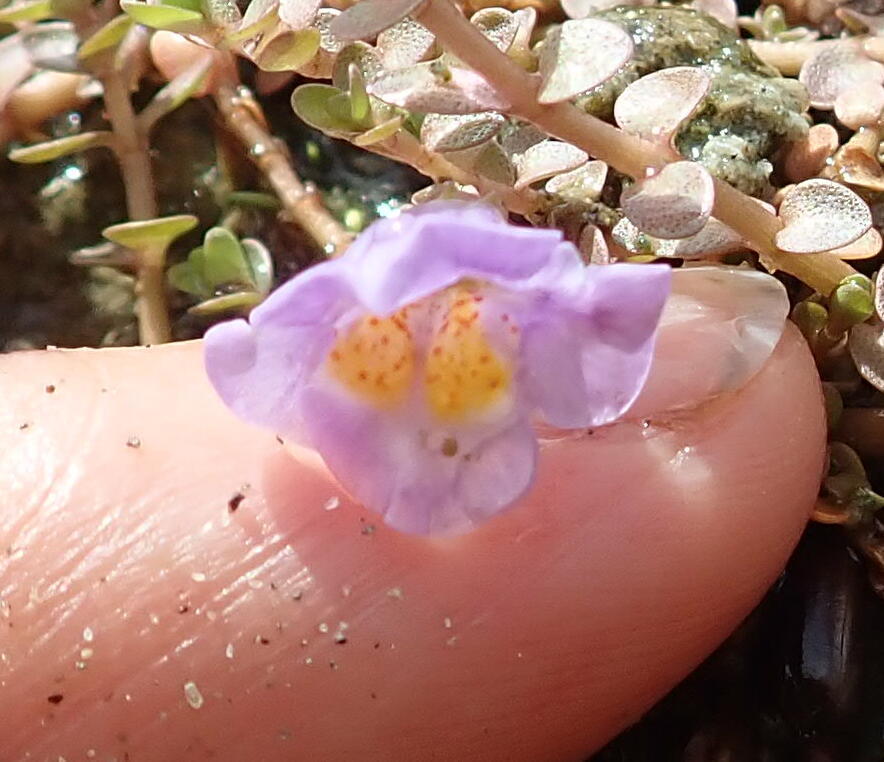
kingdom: Plantae
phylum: Tracheophyta
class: Magnoliopsida
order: Lamiales
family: Phrymaceae
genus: Thyridia
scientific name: Thyridia repens
